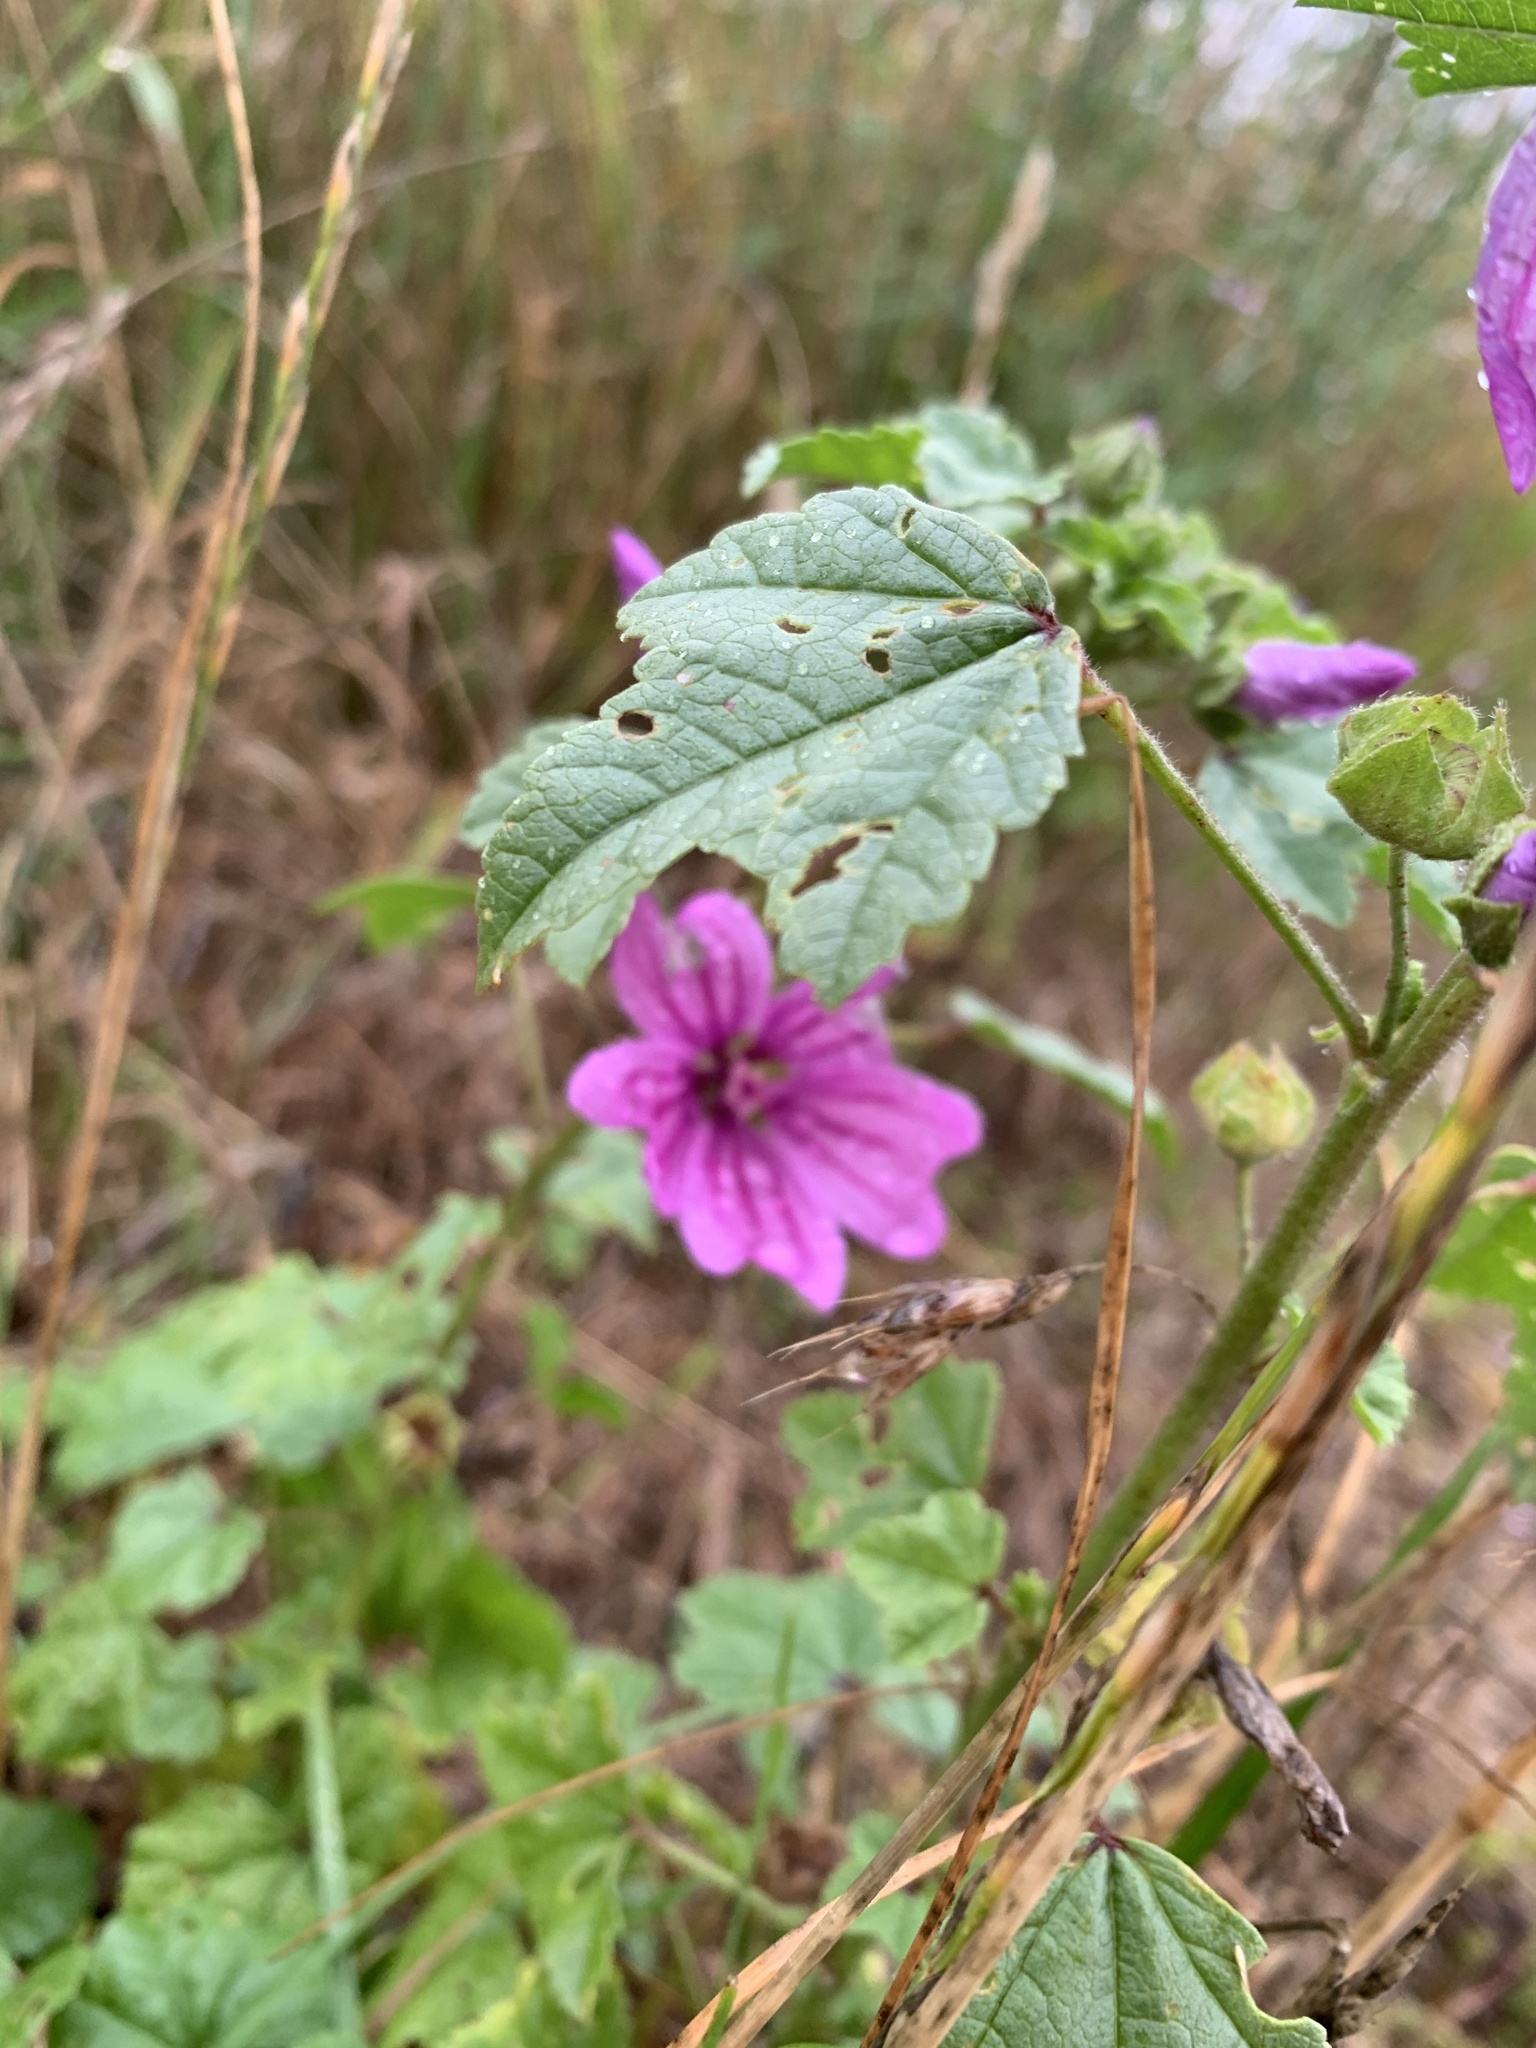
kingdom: Plantae
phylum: Tracheophyta
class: Magnoliopsida
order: Malvales
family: Malvaceae
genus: Malva
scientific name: Malva sylvestris
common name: Common mallow
